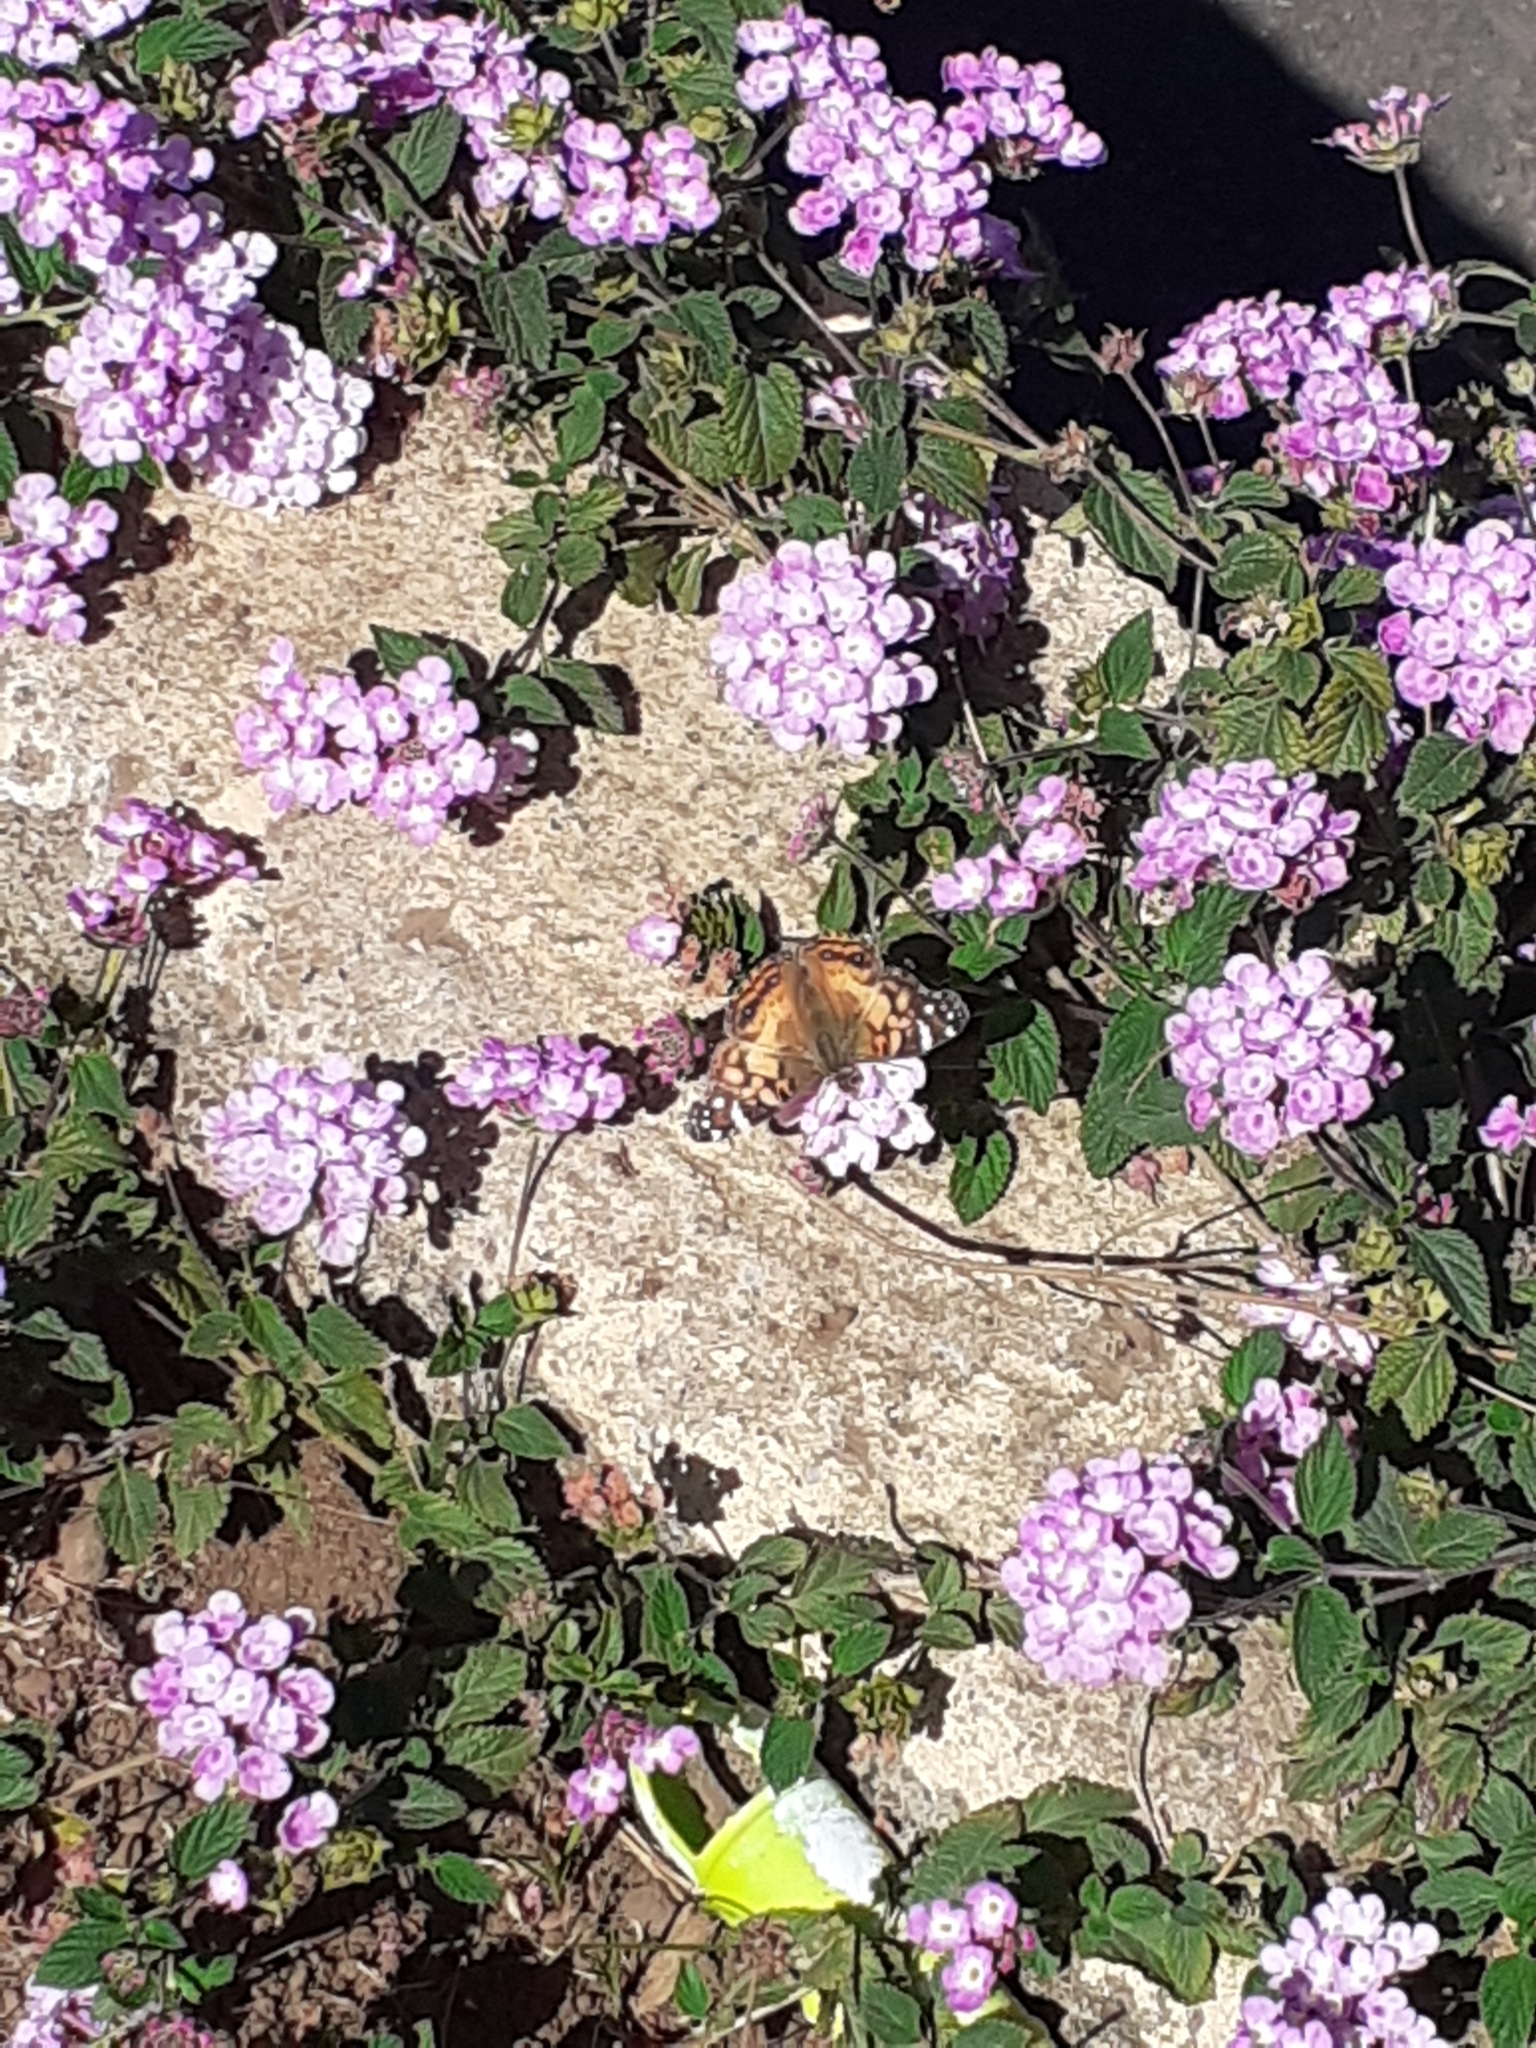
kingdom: Animalia
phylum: Arthropoda
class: Insecta
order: Lepidoptera
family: Nymphalidae
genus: Vanessa
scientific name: Vanessa virginiensis
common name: American lady
